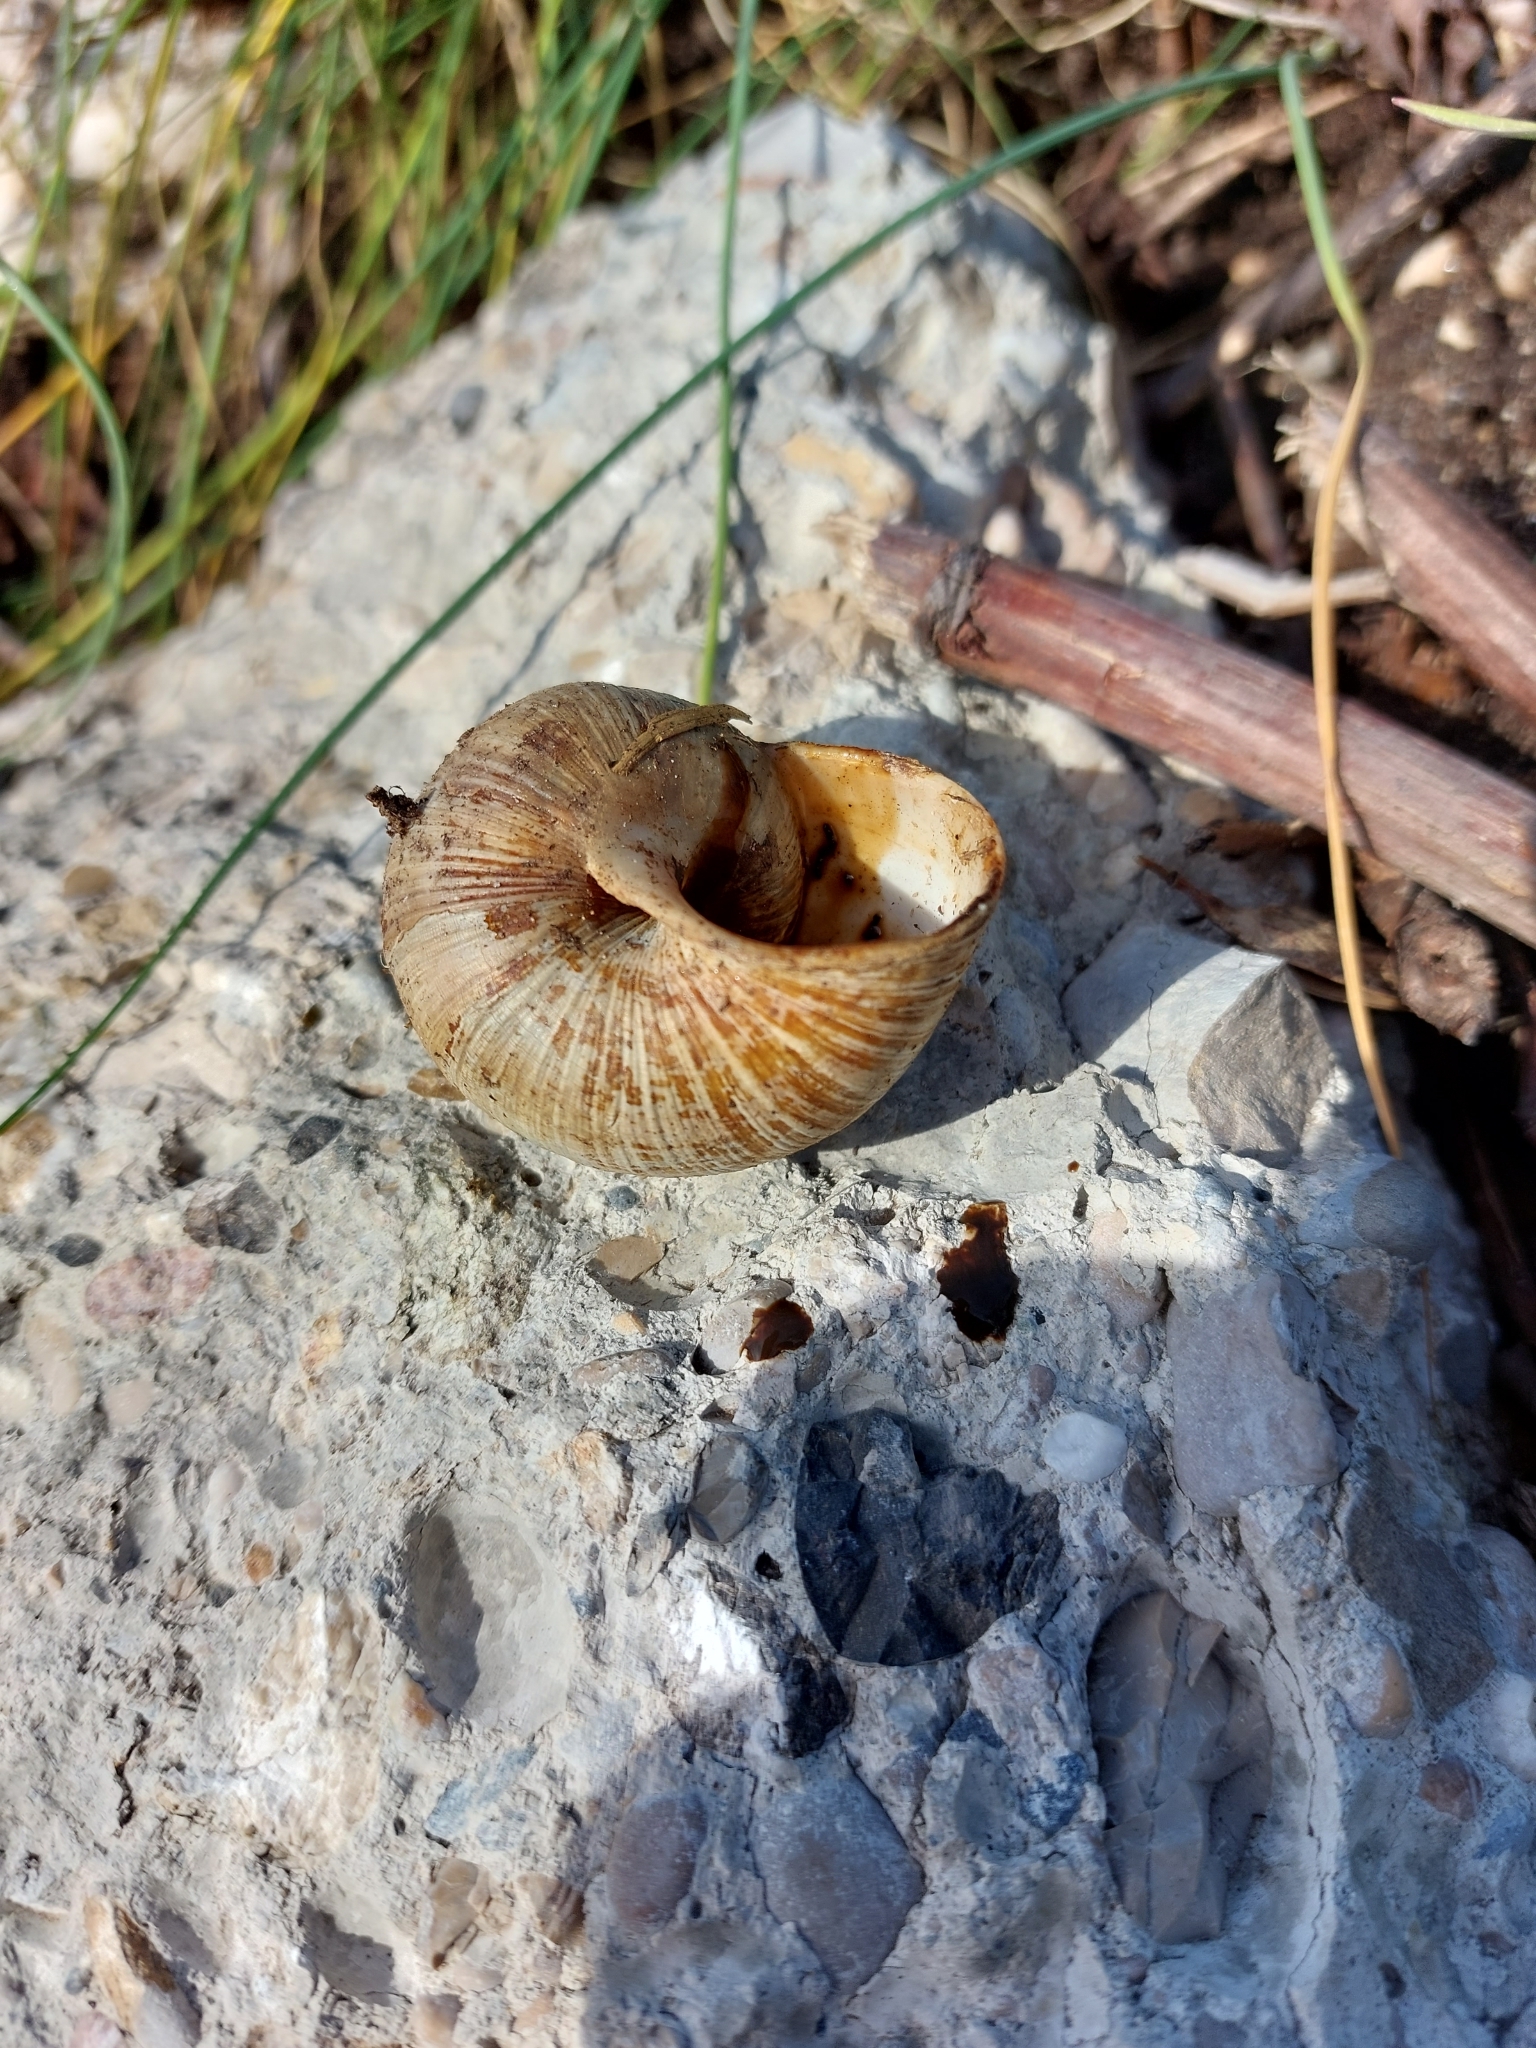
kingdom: Animalia
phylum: Mollusca
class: Gastropoda
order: Stylommatophora
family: Helicidae
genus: Helix
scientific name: Helix pomatia
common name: Roman snail
